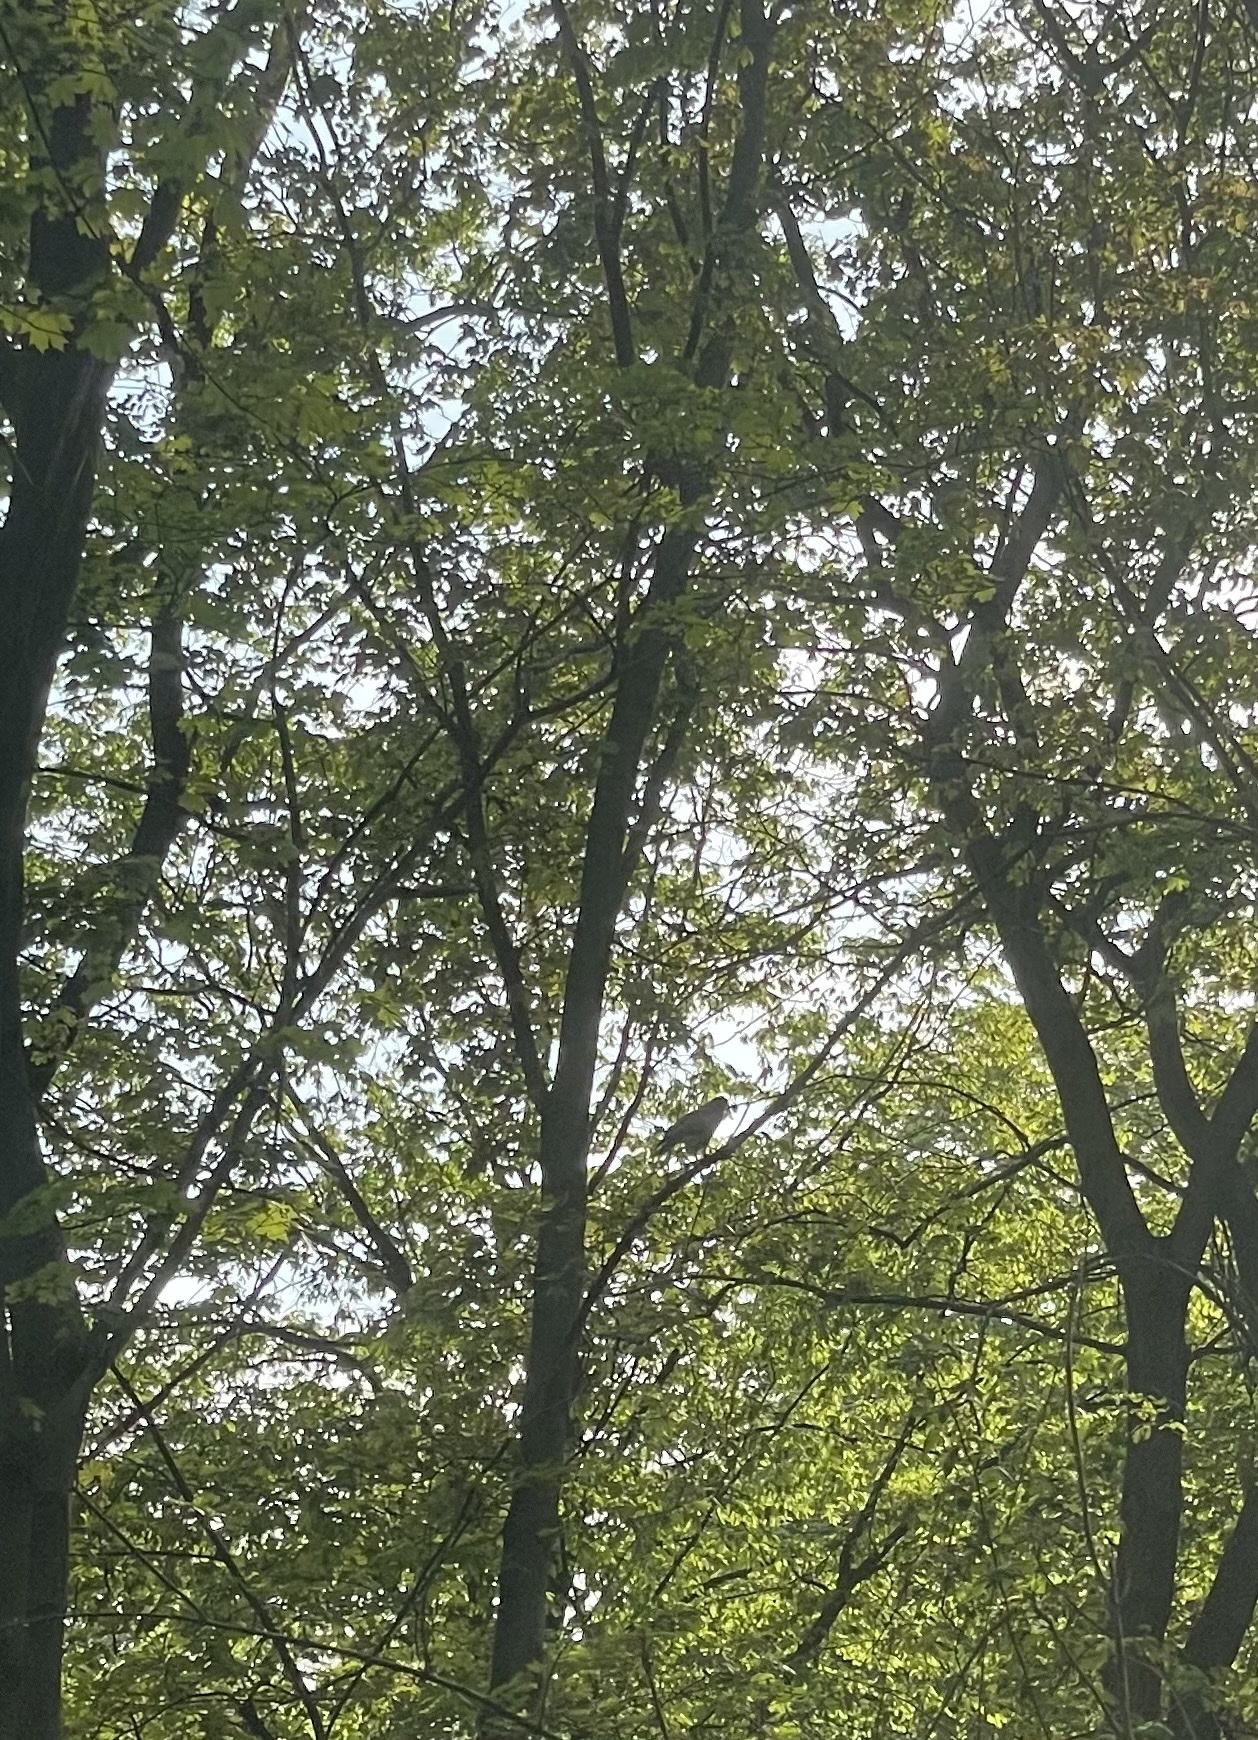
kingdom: Animalia
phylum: Chordata
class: Aves
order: Accipitriformes
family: Accipitridae
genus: Buteo
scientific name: Buteo buteo
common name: Common buzzard
